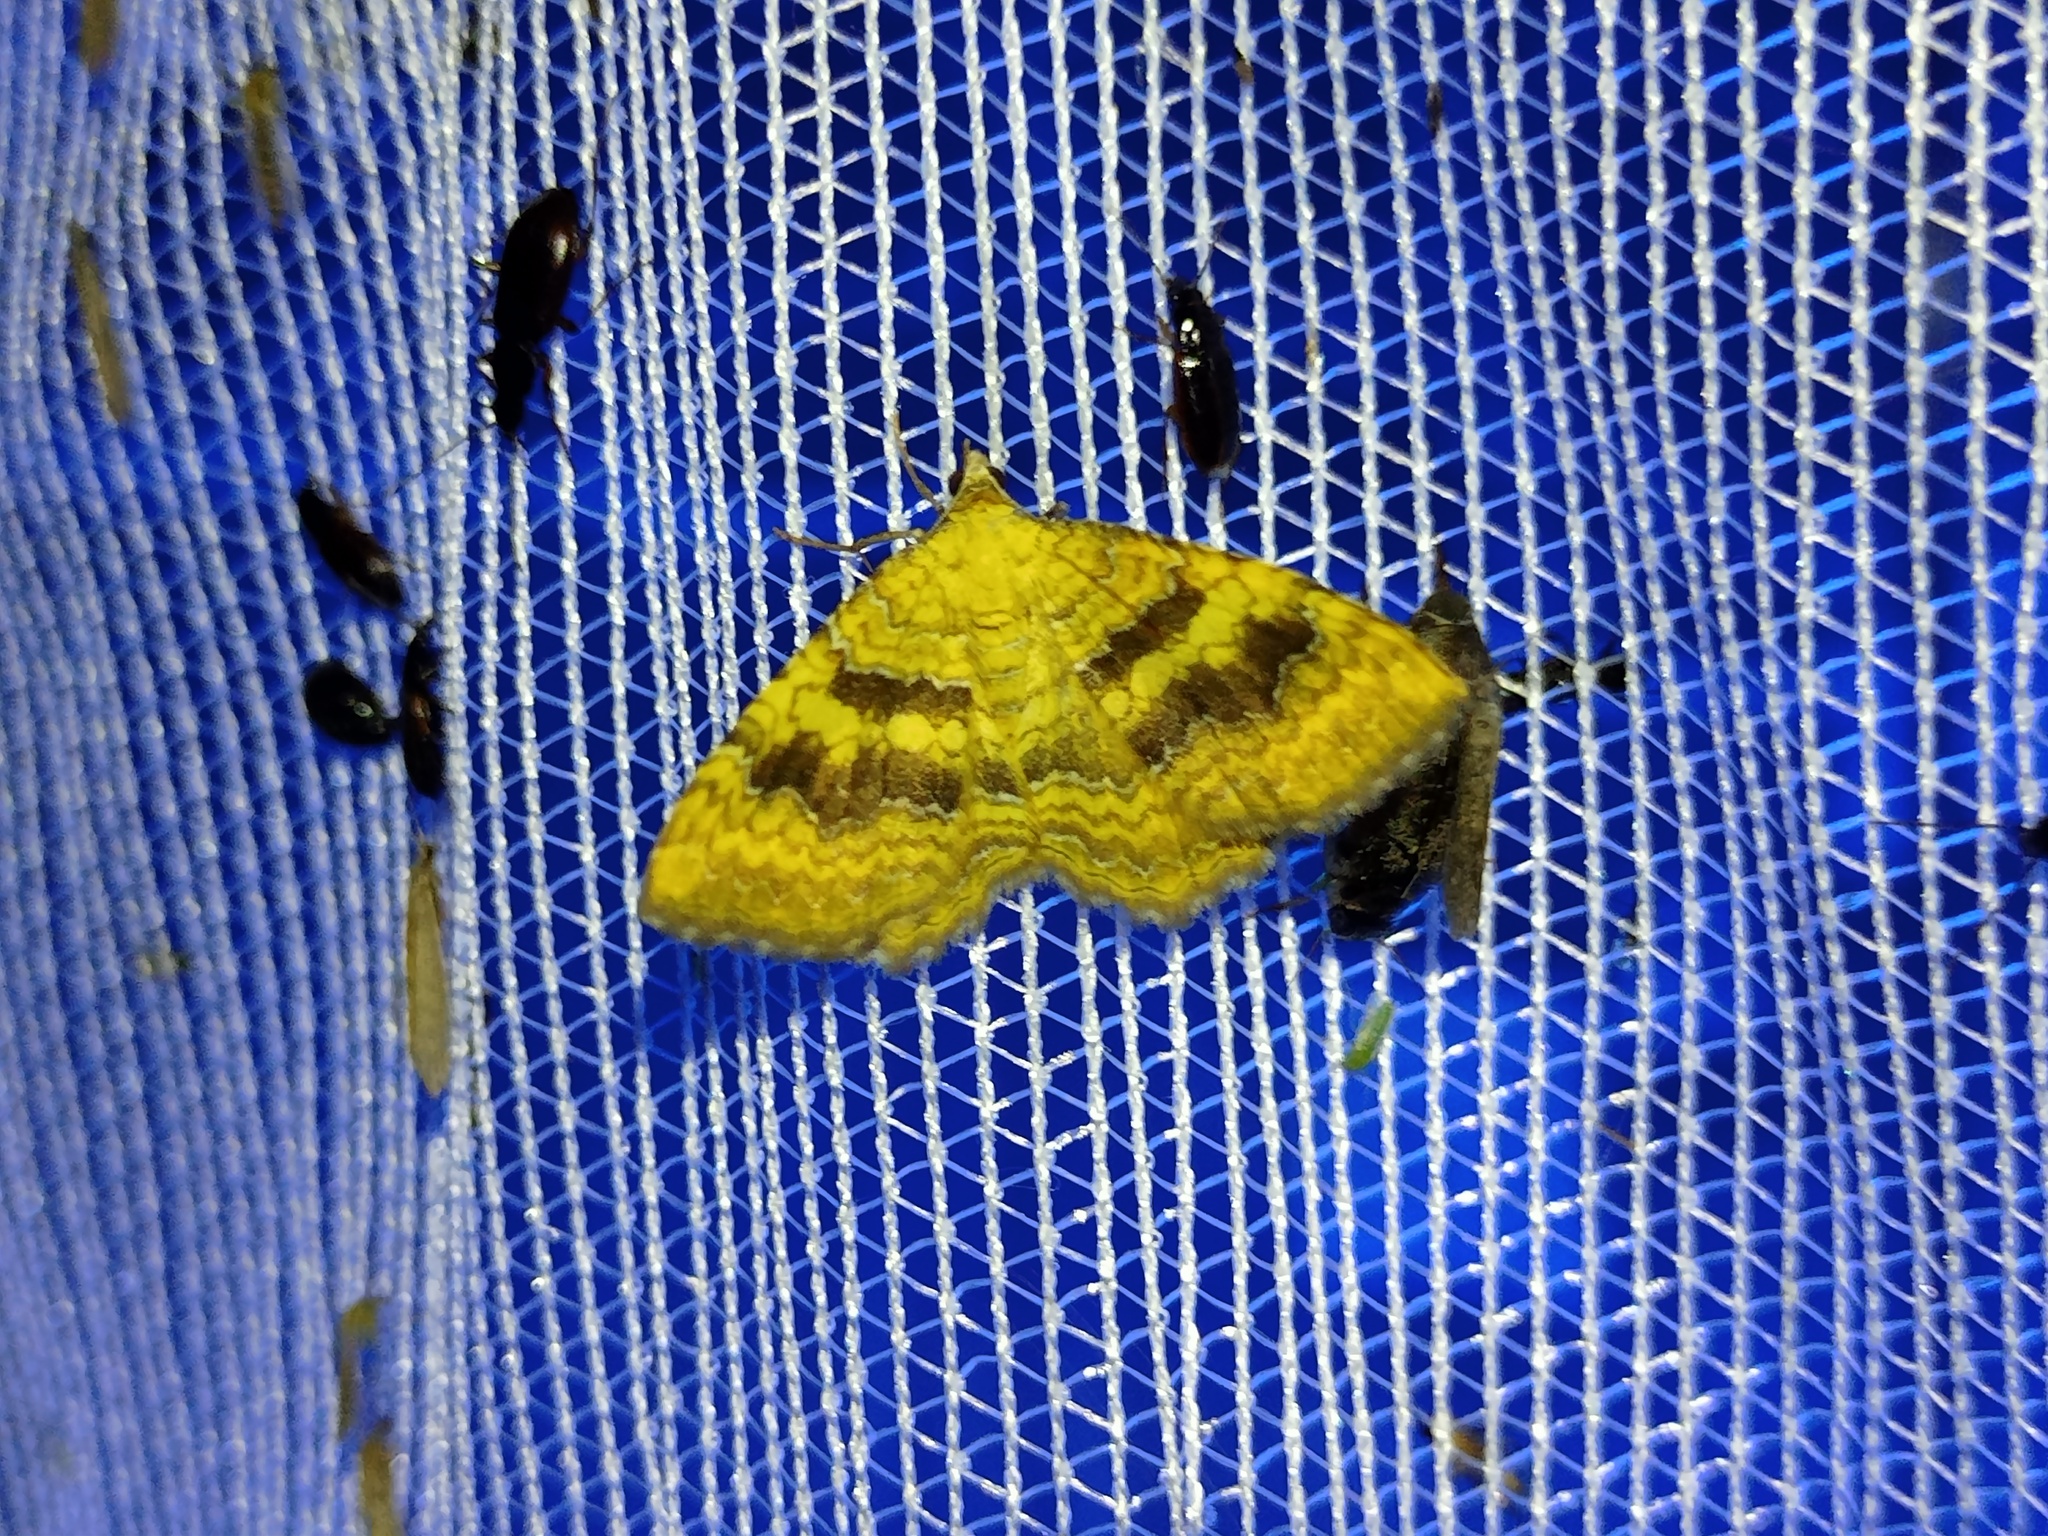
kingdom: Animalia
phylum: Arthropoda
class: Insecta
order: Lepidoptera
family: Geometridae
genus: Camptogramma
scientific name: Camptogramma bilineata
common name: Yellow shell
